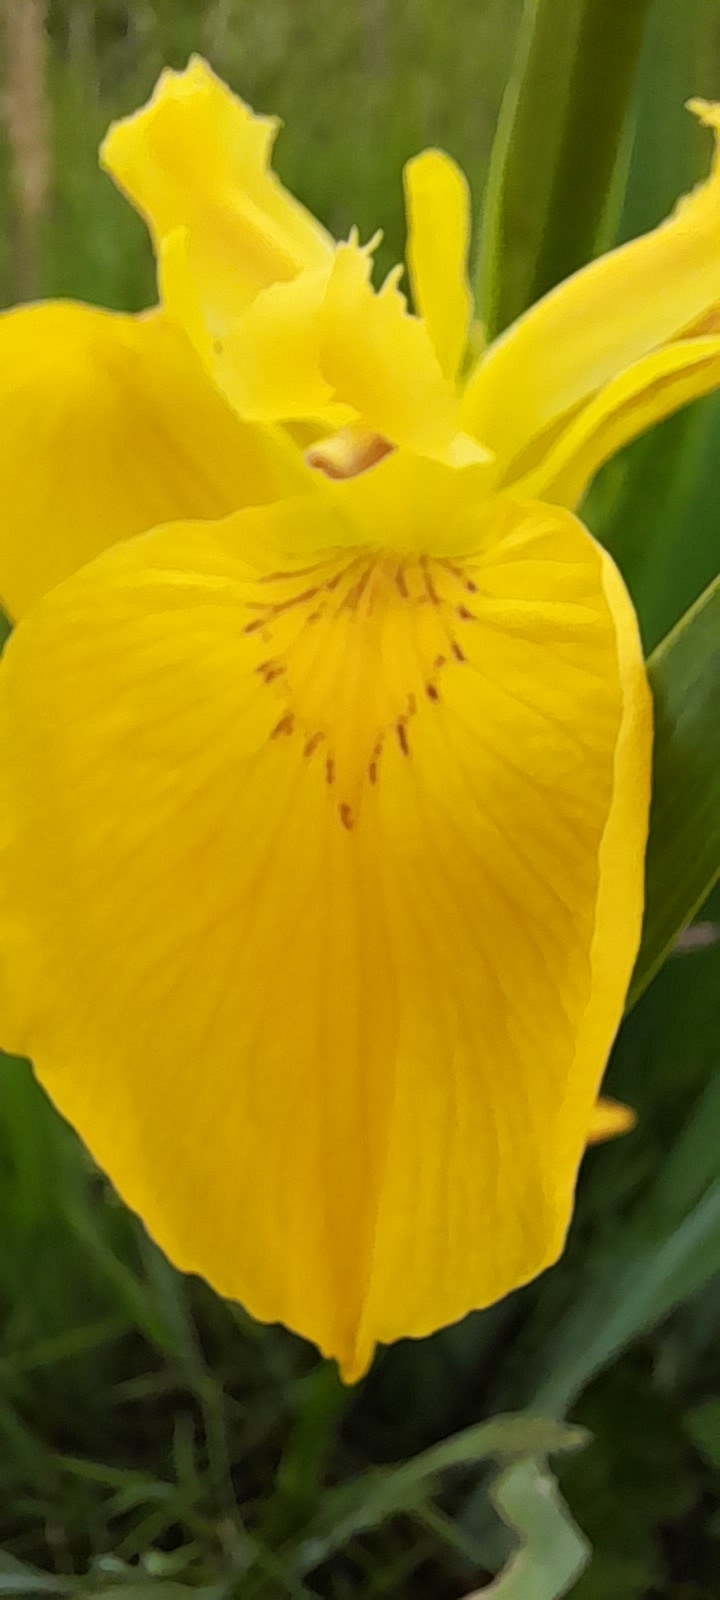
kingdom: Plantae
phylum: Tracheophyta
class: Liliopsida
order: Asparagales
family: Iridaceae
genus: Iris
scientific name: Iris pseudacorus
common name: Yellow flag
